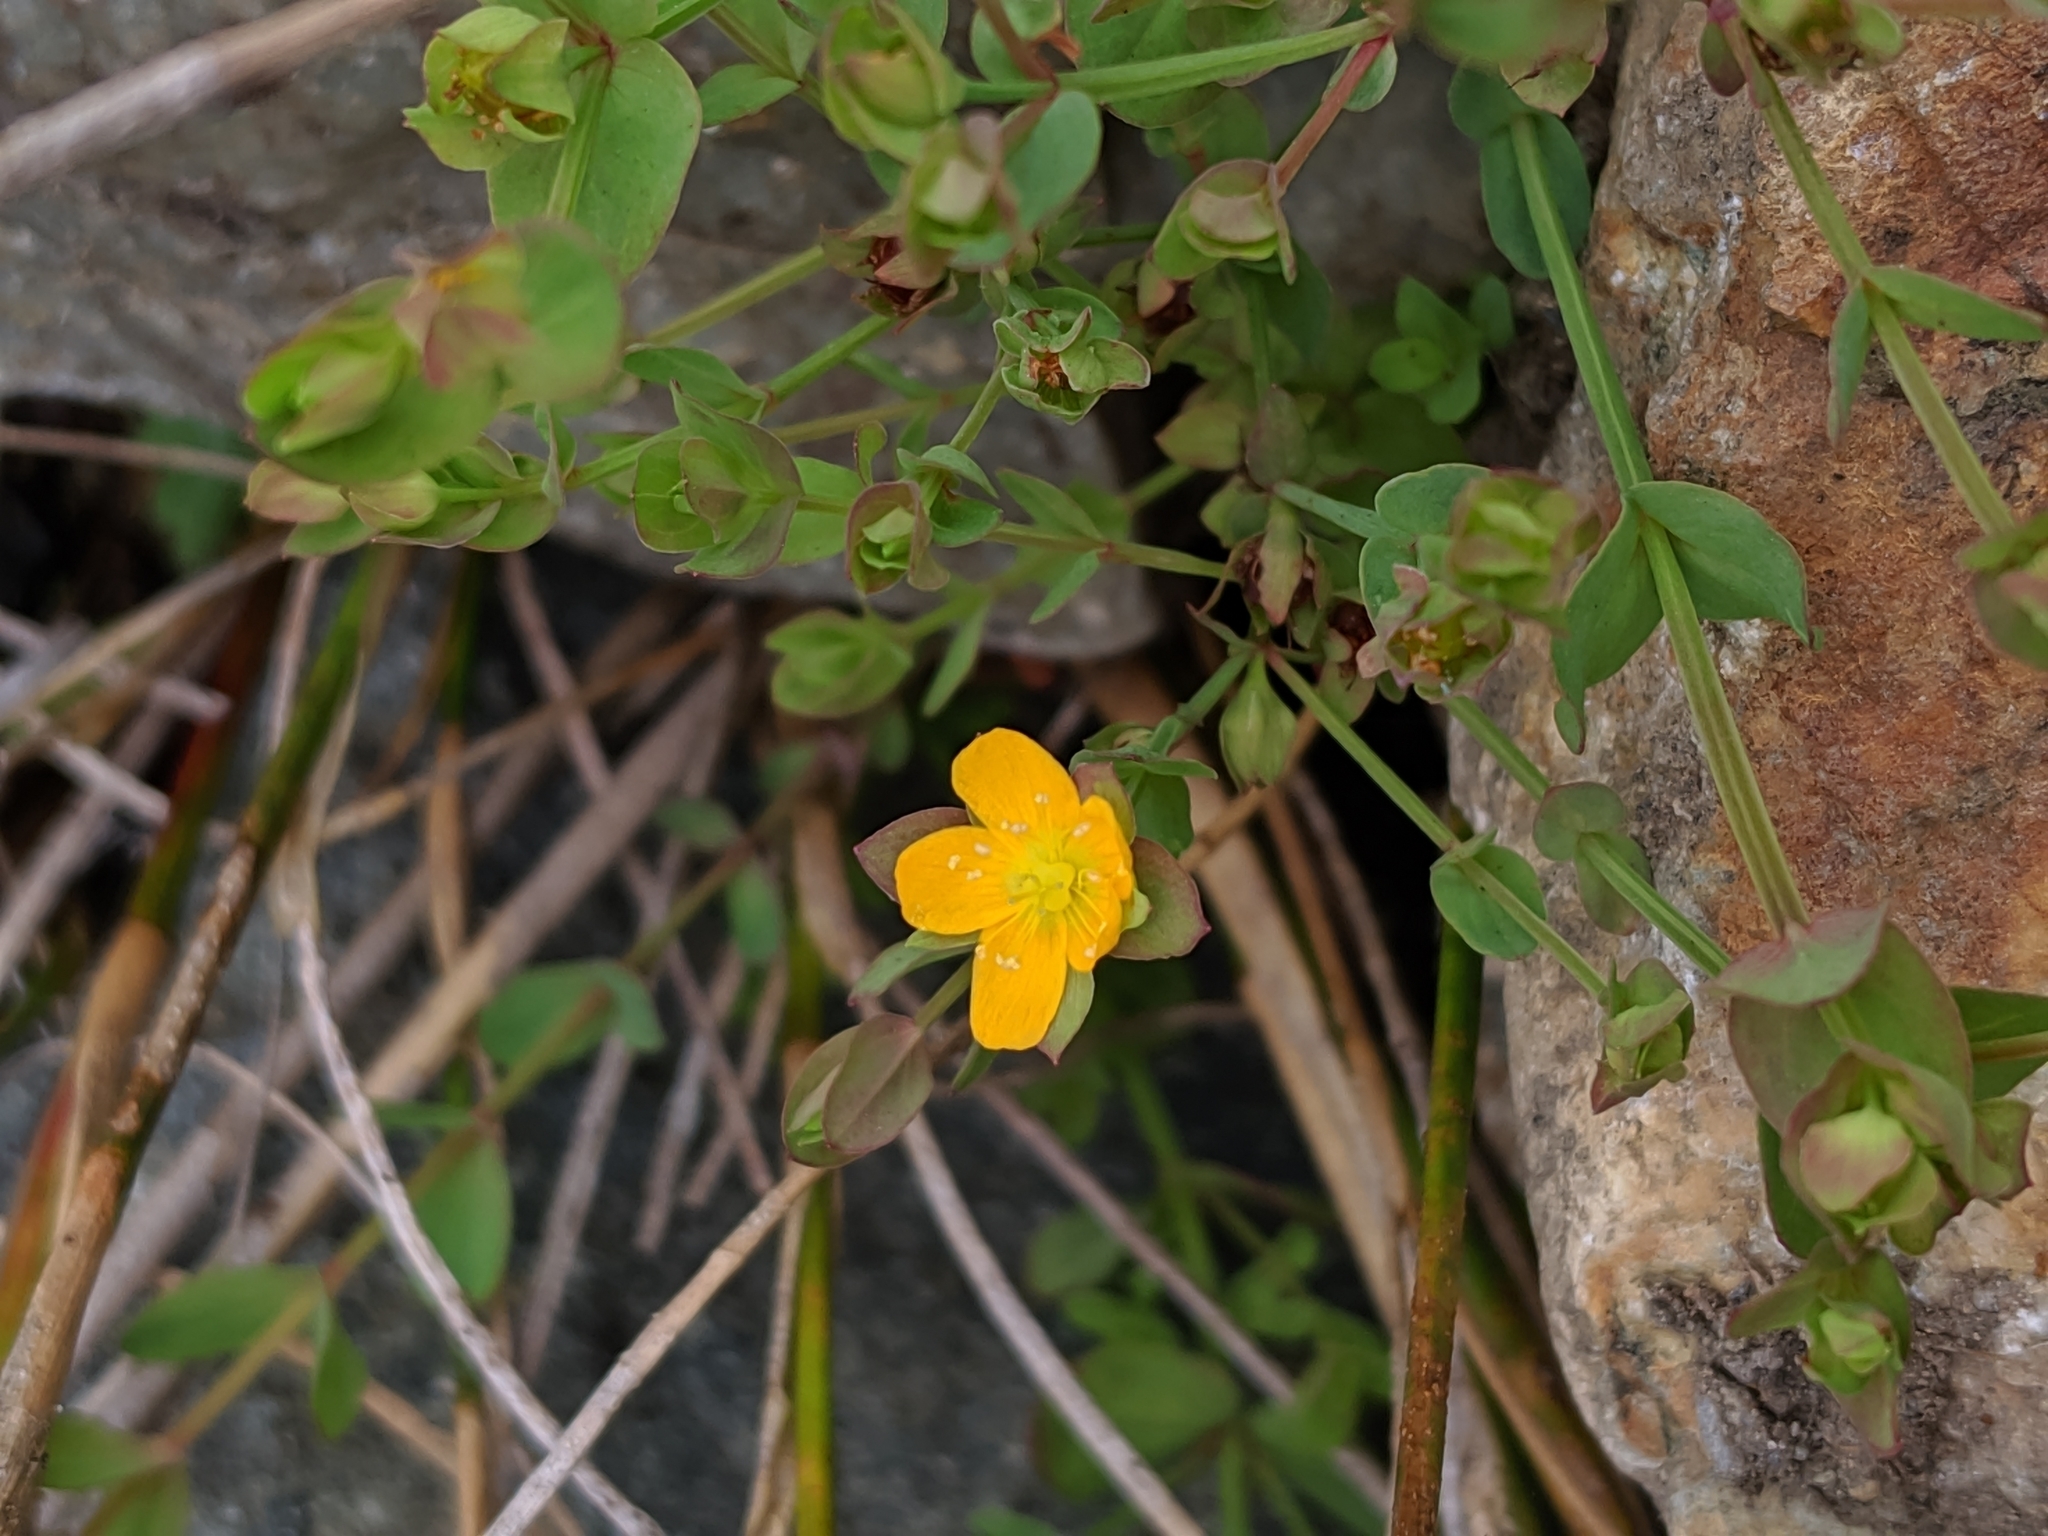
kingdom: Plantae
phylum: Tracheophyta
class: Magnoliopsida
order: Malpighiales
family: Hypericaceae
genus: Hypericum
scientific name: Hypericum anagalloides
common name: Bog st. john's-wort
